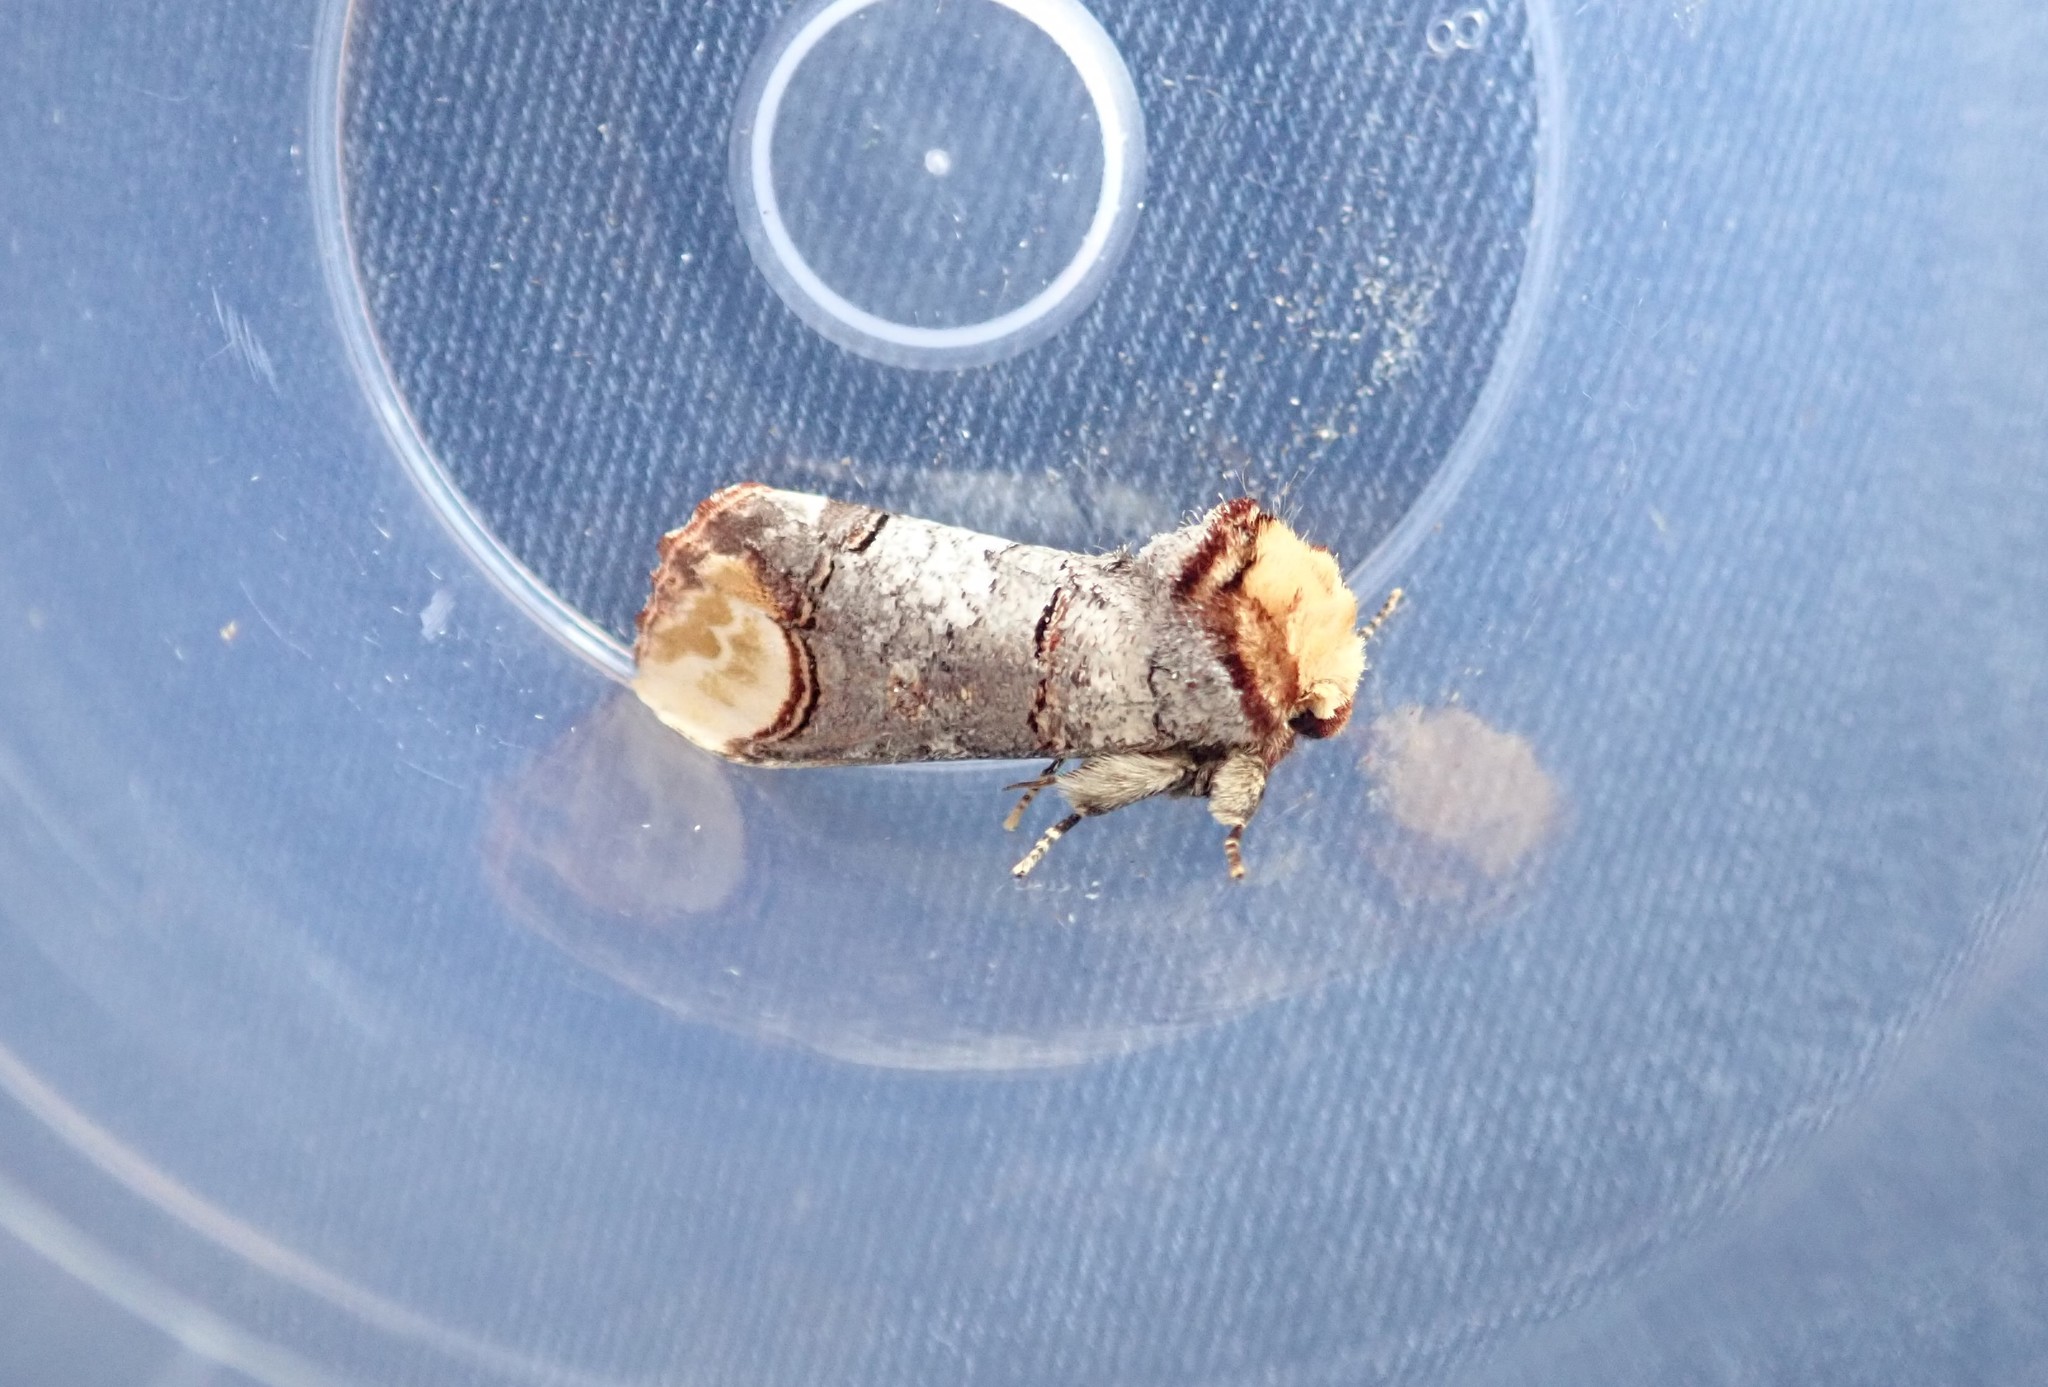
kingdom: Animalia
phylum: Arthropoda
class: Insecta
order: Lepidoptera
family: Notodontidae
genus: Phalera
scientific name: Phalera bucephala
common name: Buff-tip
